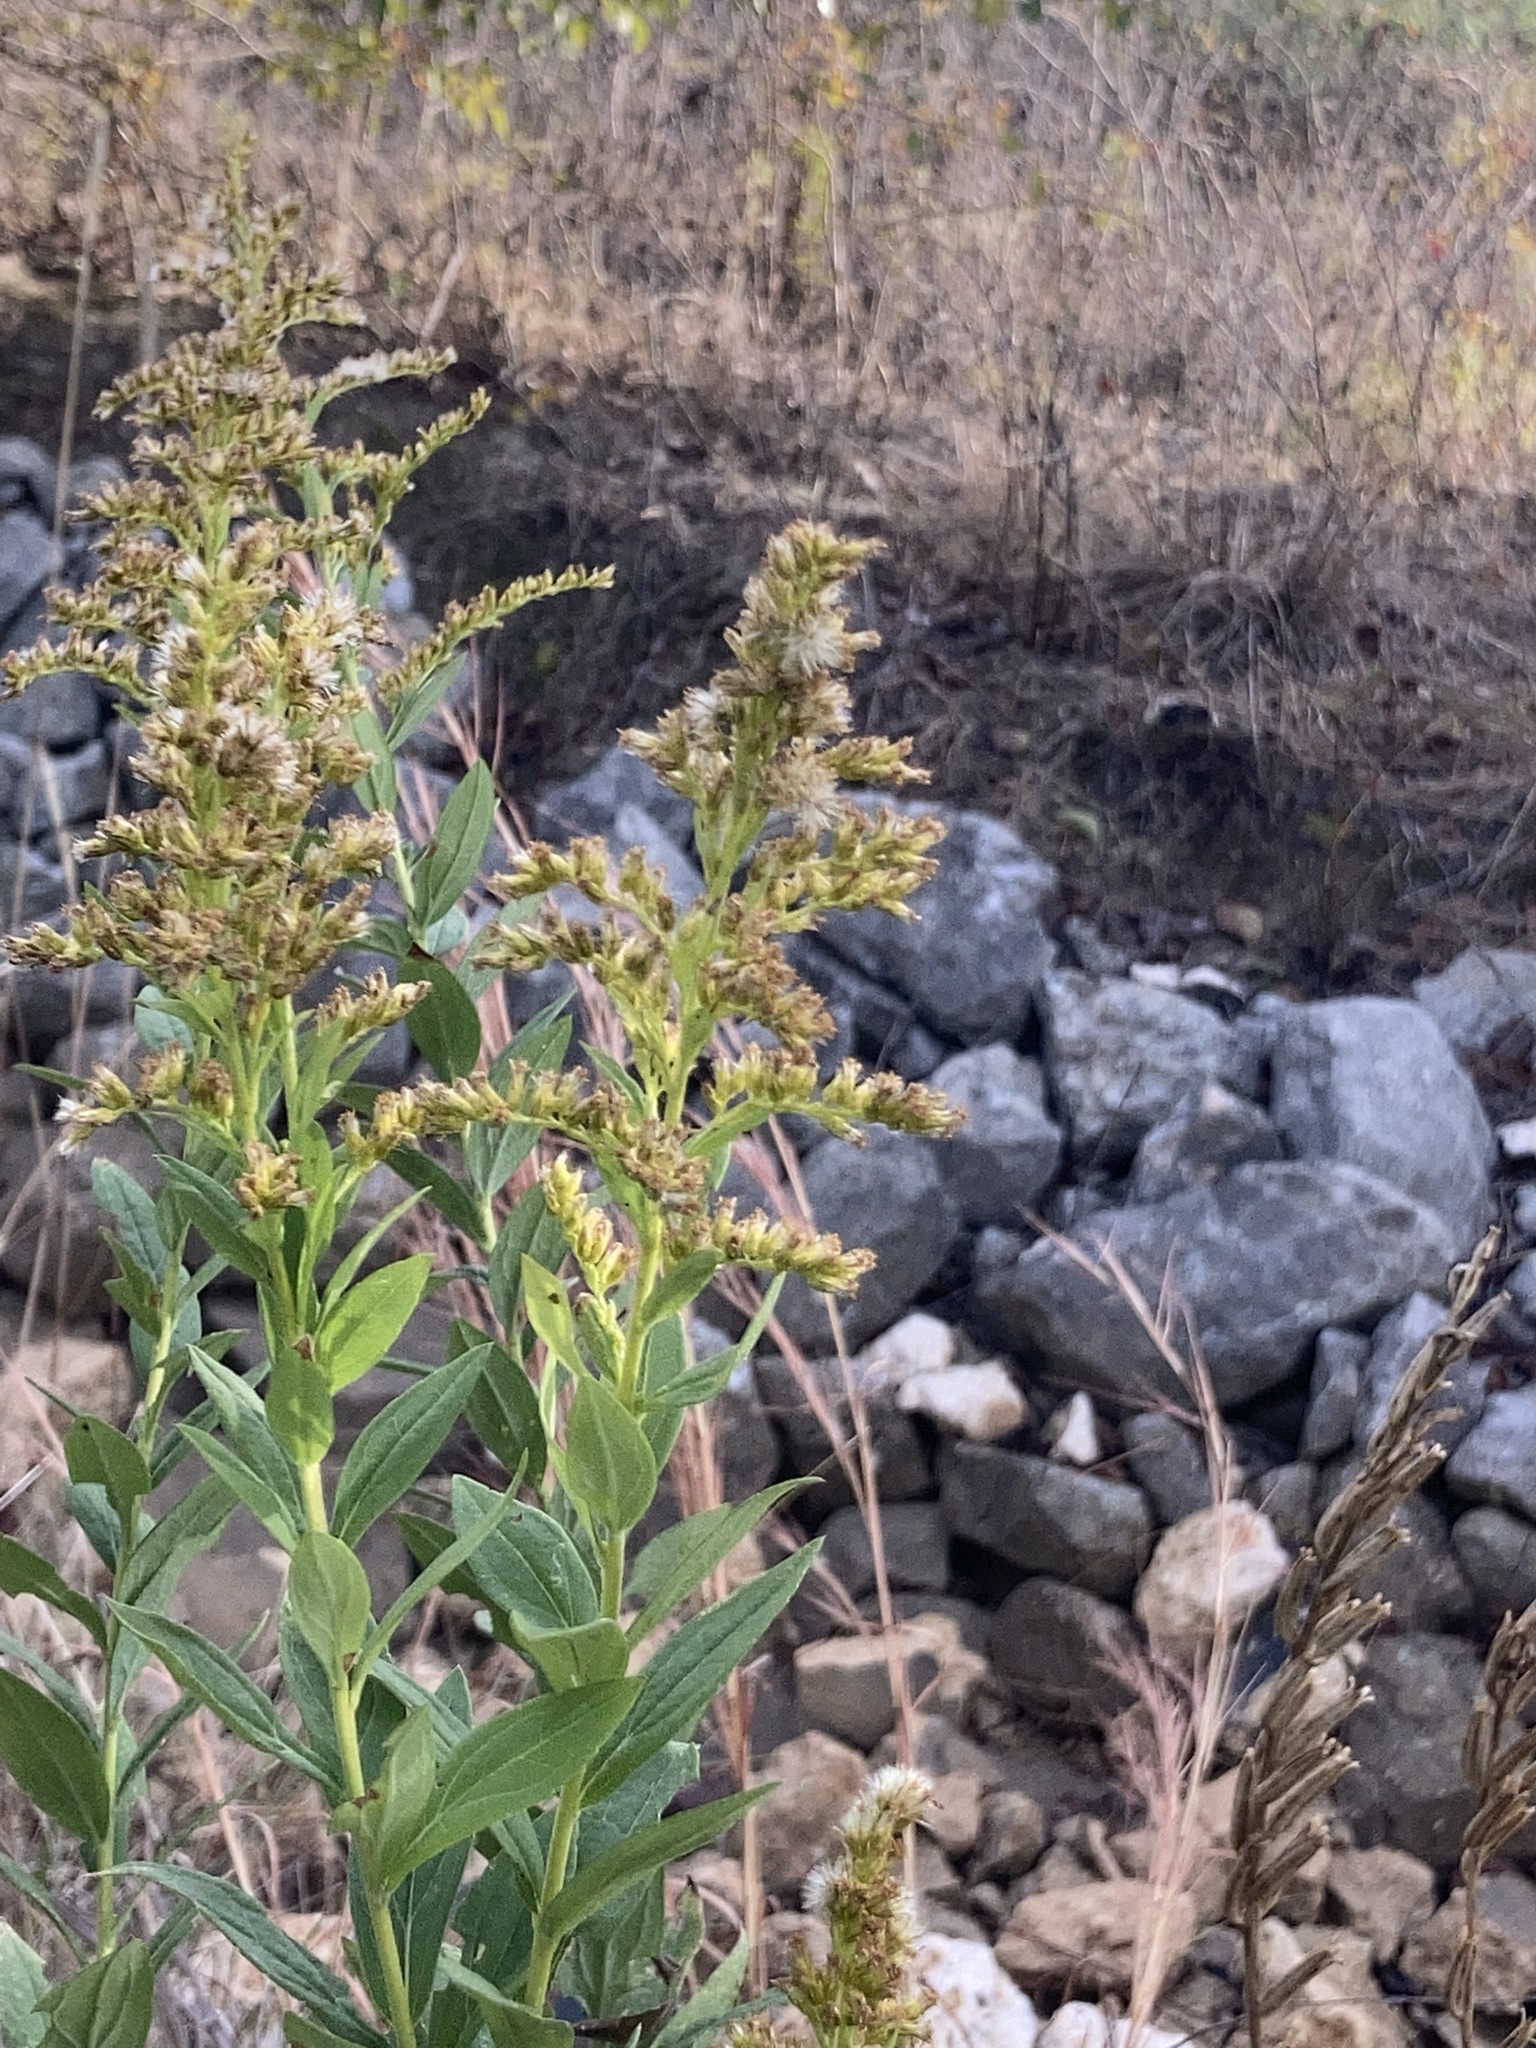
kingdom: Plantae
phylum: Tracheophyta
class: Magnoliopsida
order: Asterales
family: Asteraceae
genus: Solidago
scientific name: Solidago altissima
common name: Late goldenrod
